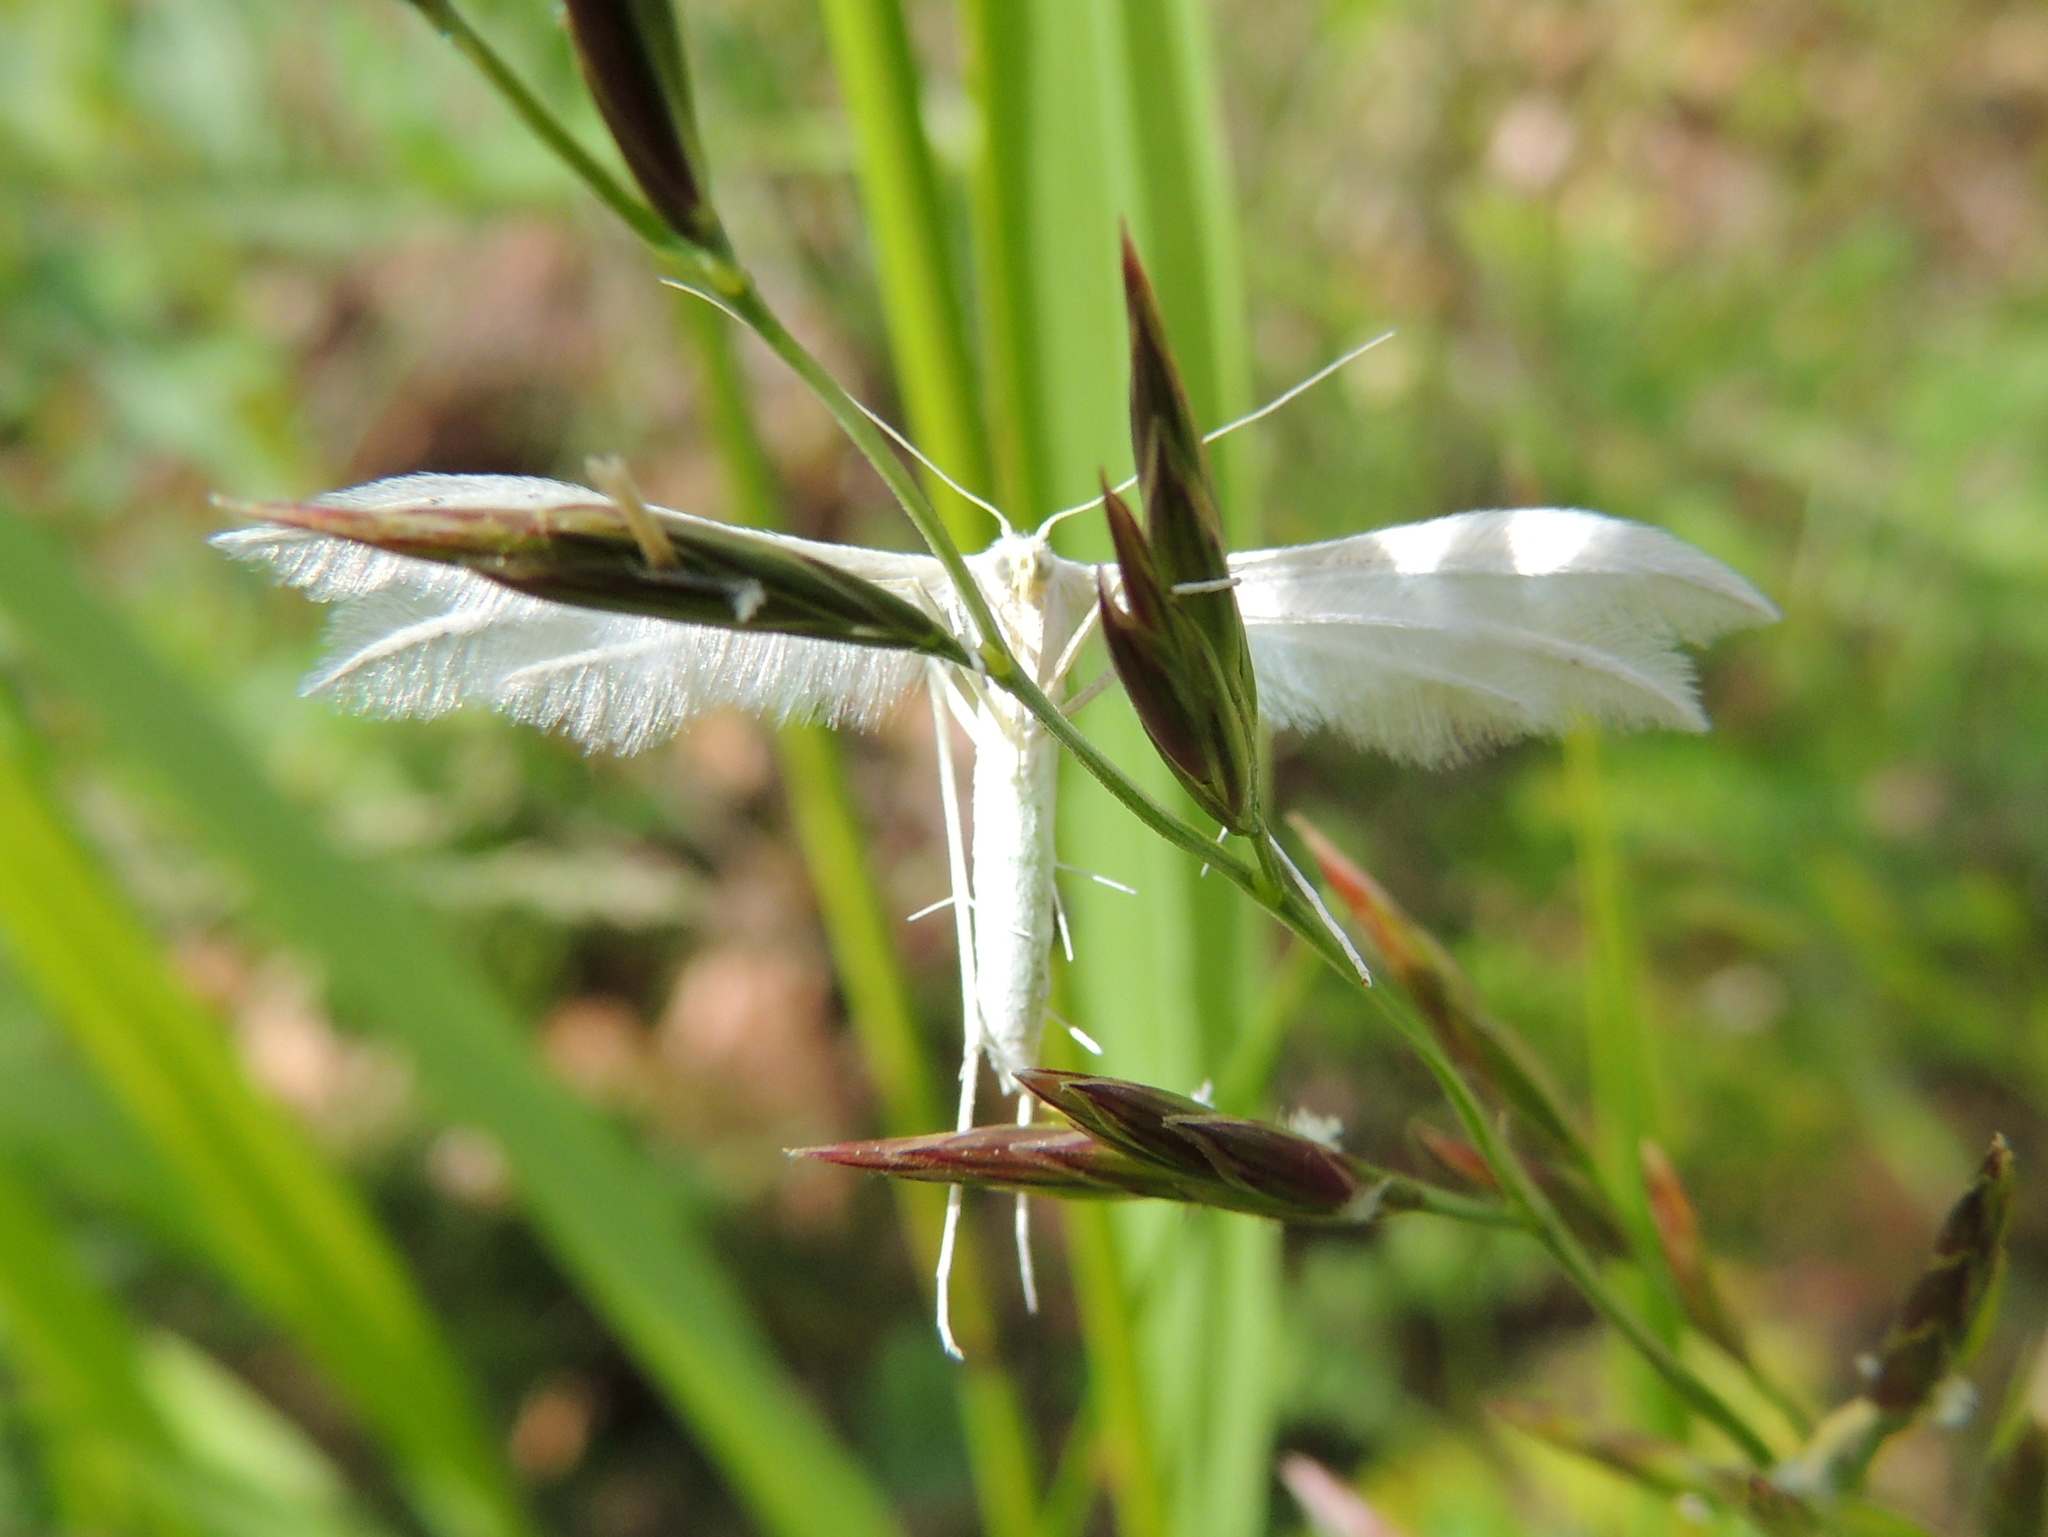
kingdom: Animalia
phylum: Arthropoda
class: Insecta
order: Lepidoptera
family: Pterophoridae
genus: Pterophorus
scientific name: Pterophorus pentadactyla
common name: White plume moth
